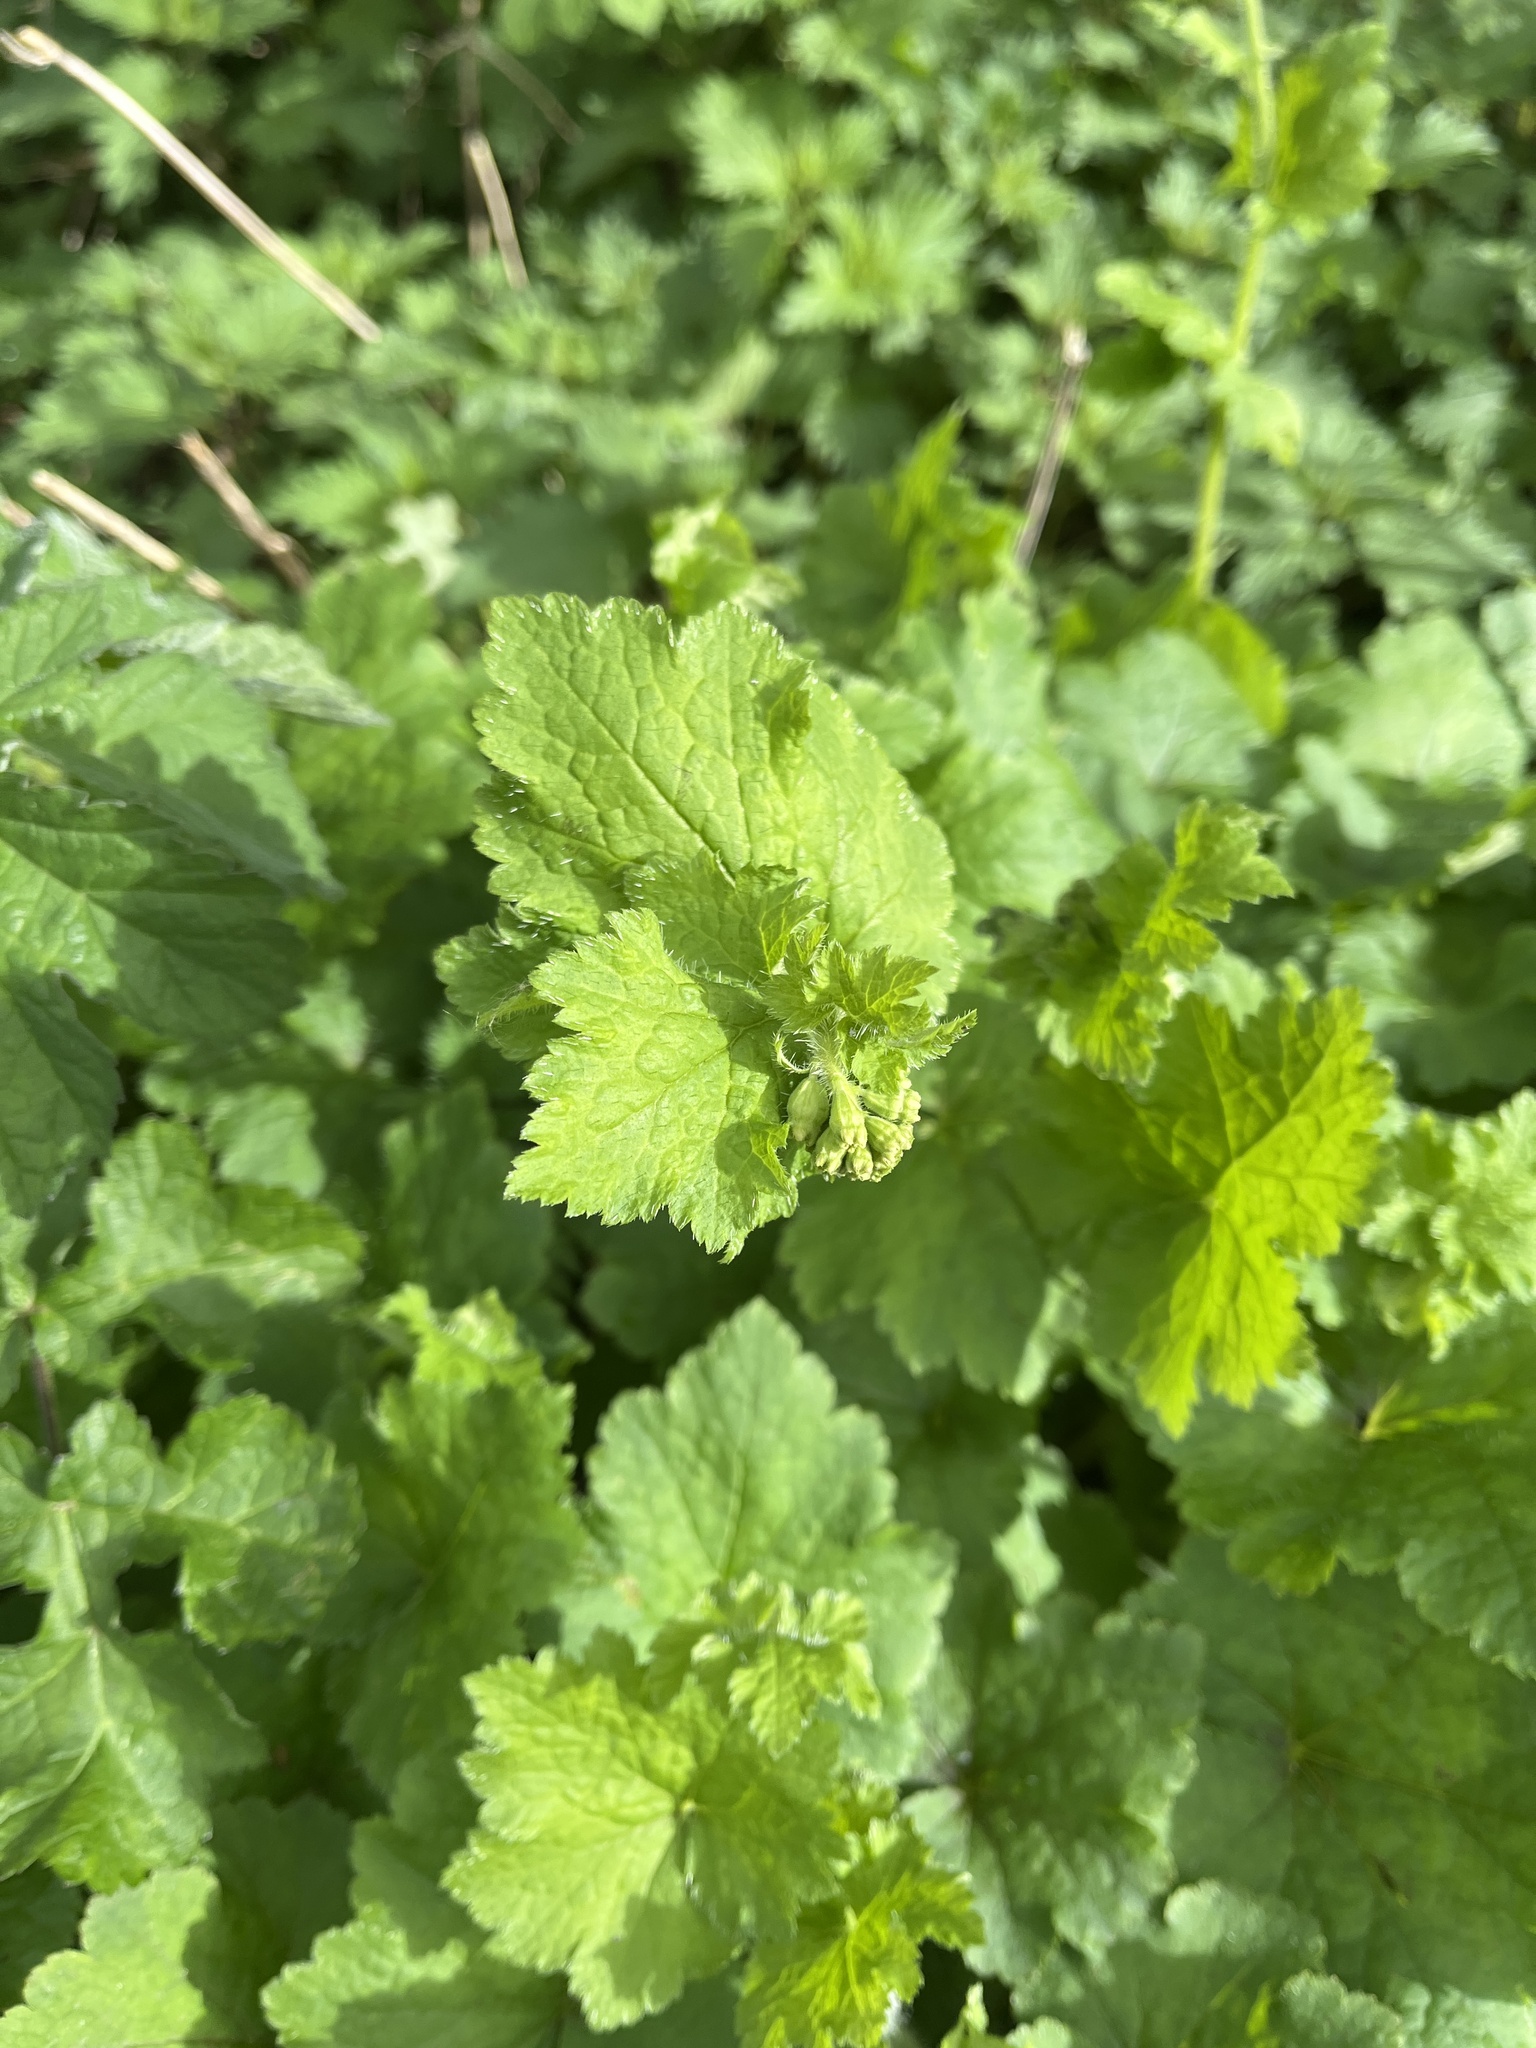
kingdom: Plantae
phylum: Tracheophyta
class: Magnoliopsida
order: Saxifragales
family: Saxifragaceae
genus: Tellima
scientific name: Tellima grandiflora
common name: Fringecups
